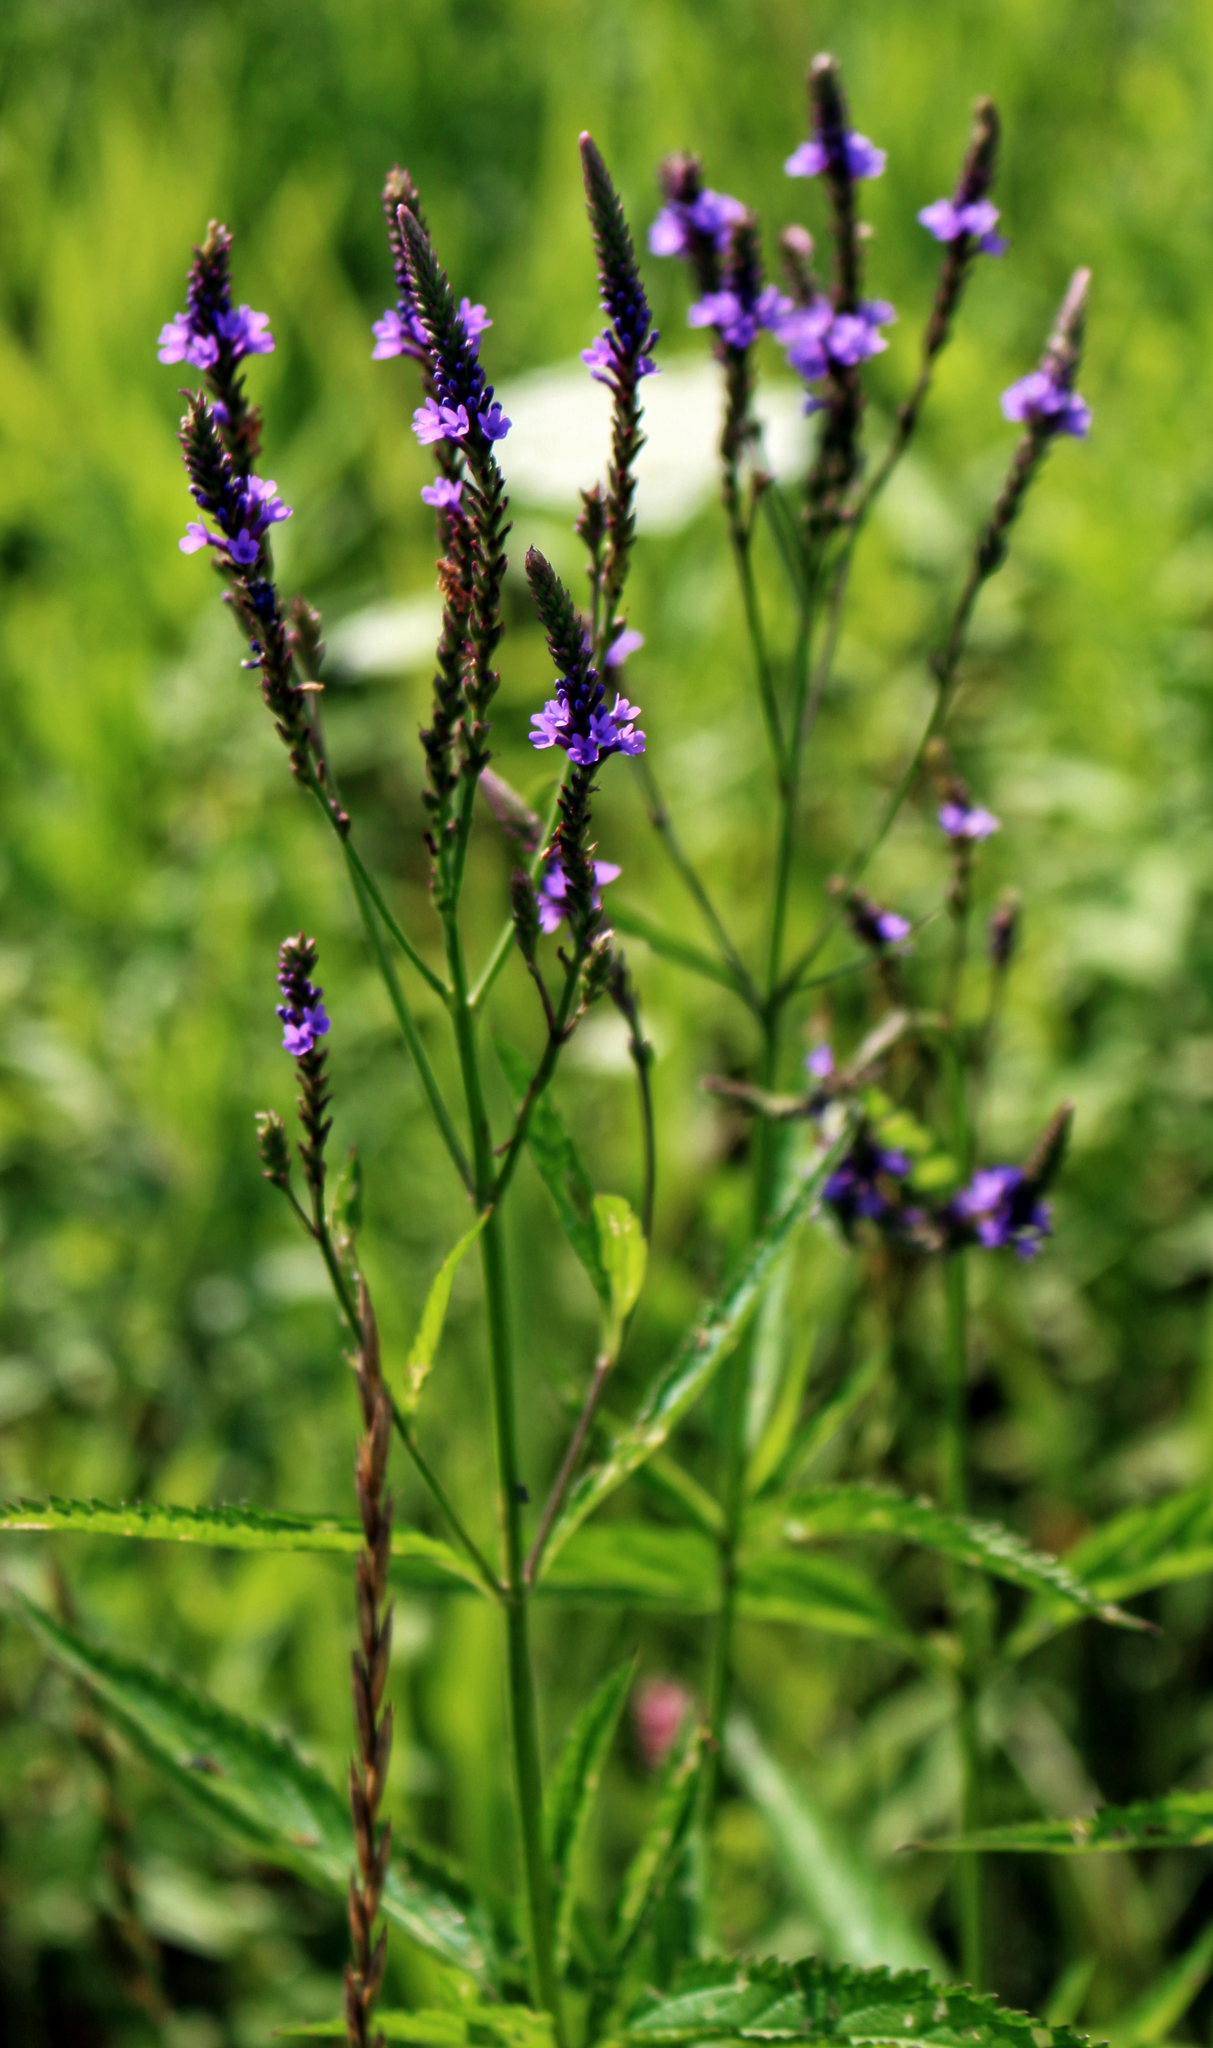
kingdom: Plantae
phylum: Tracheophyta
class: Magnoliopsida
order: Lamiales
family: Verbenaceae
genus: Verbena
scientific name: Verbena hastata
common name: American blue vervain
